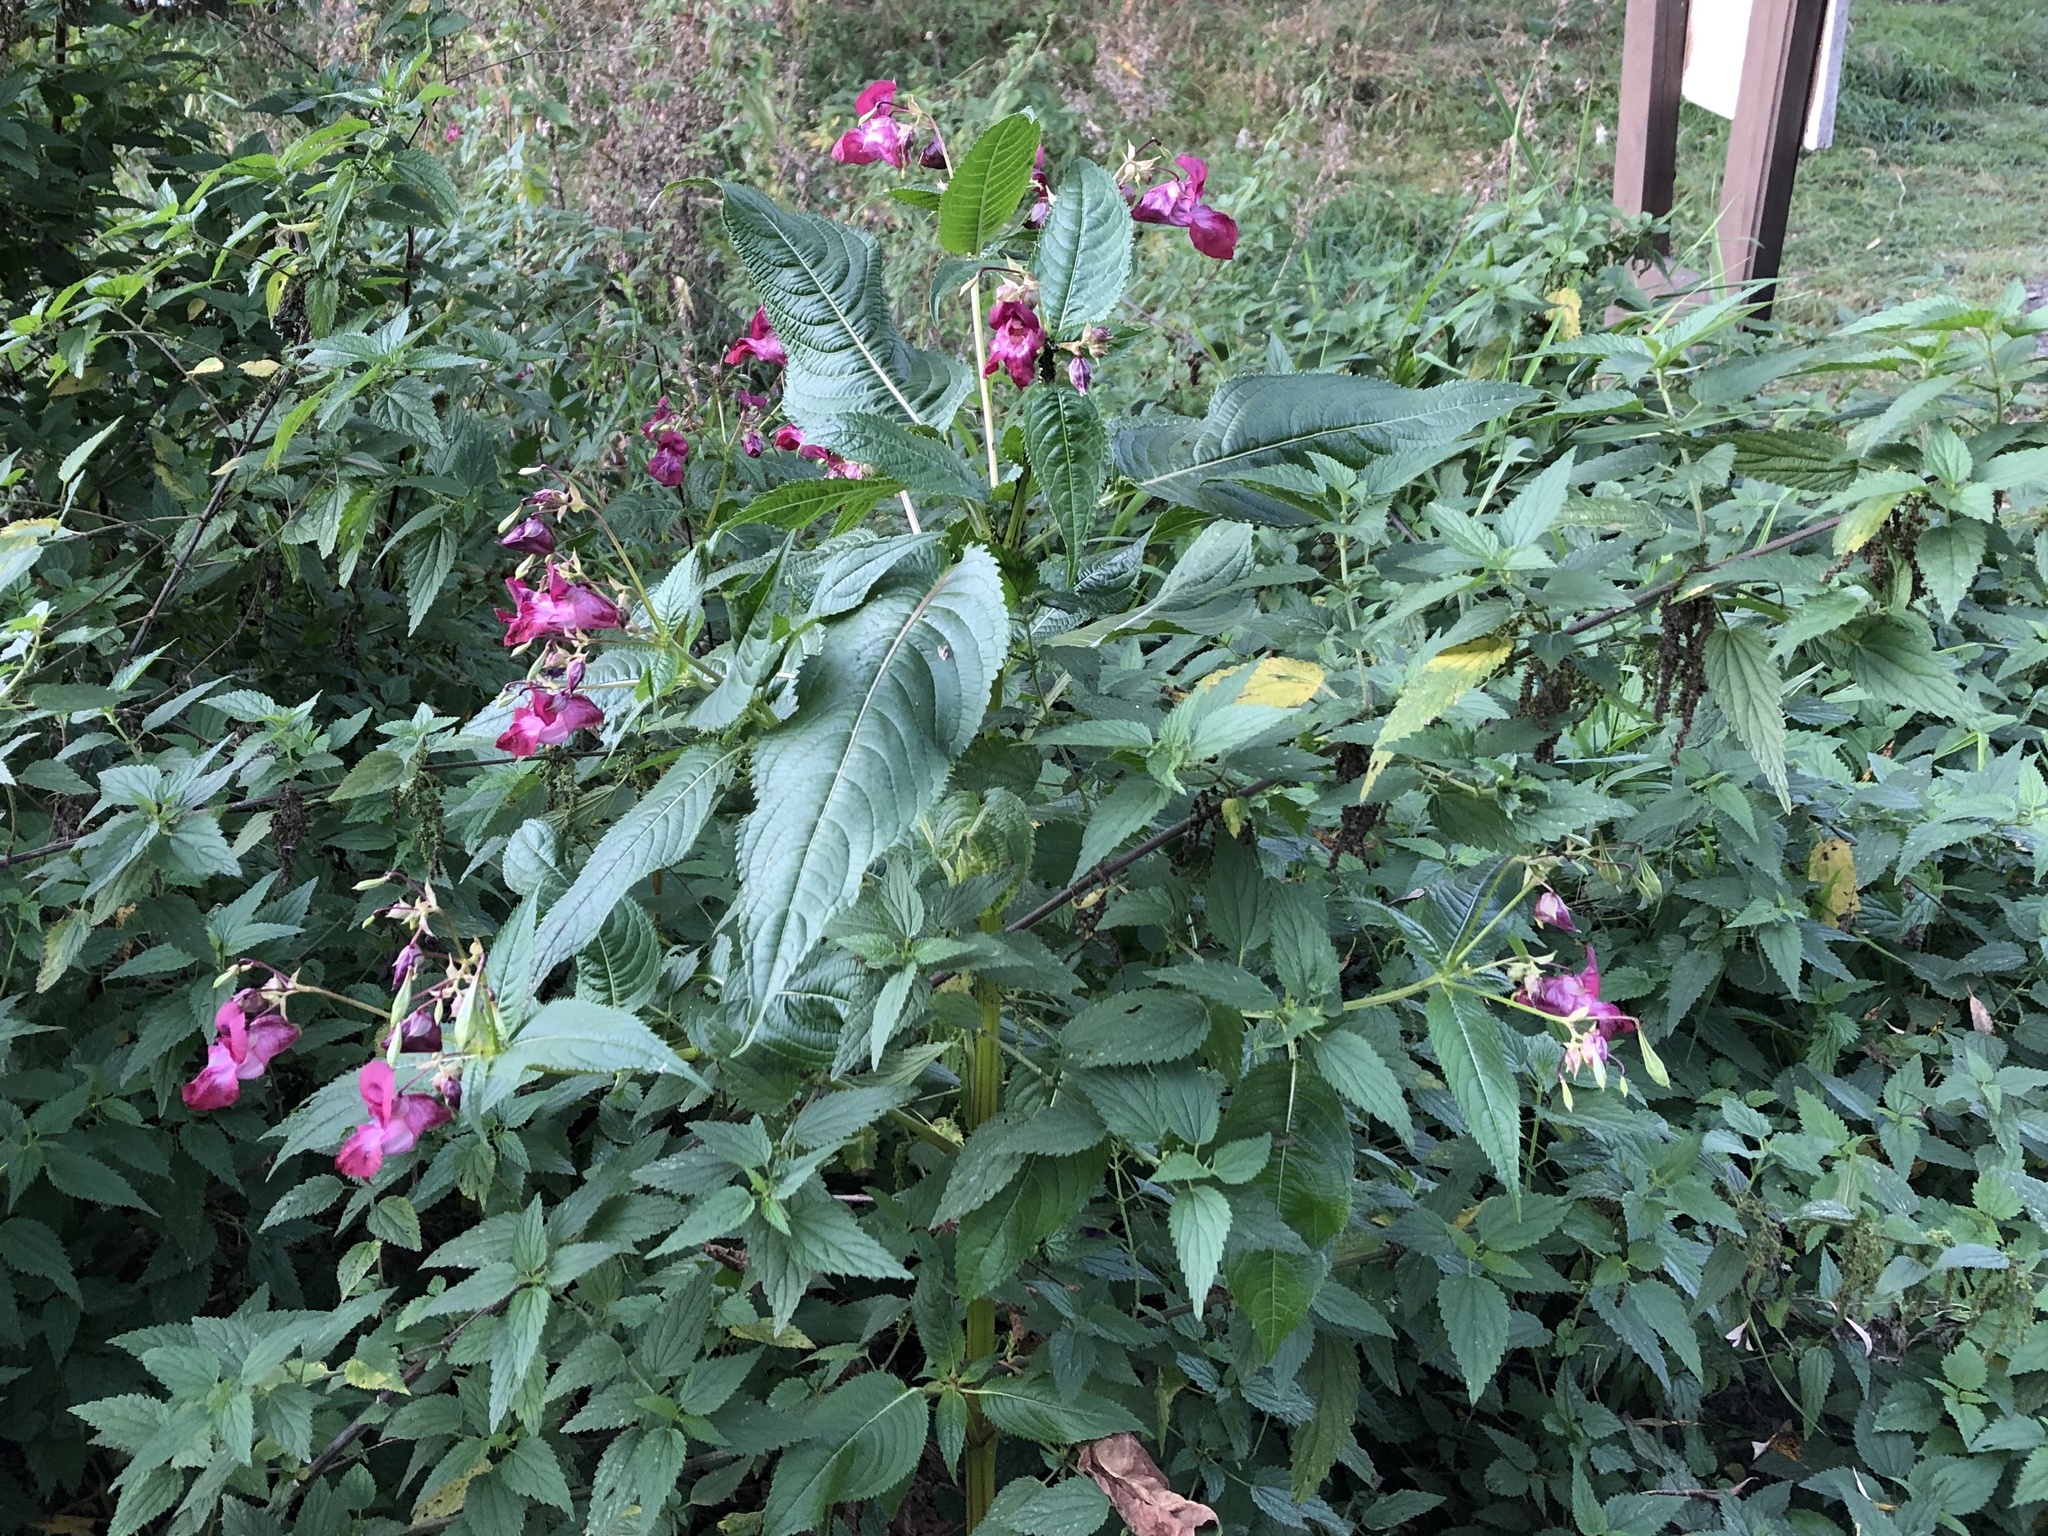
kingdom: Plantae
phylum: Tracheophyta
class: Magnoliopsida
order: Ericales
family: Balsaminaceae
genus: Impatiens
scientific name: Impatiens glandulifera
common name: Himalayan balsam
